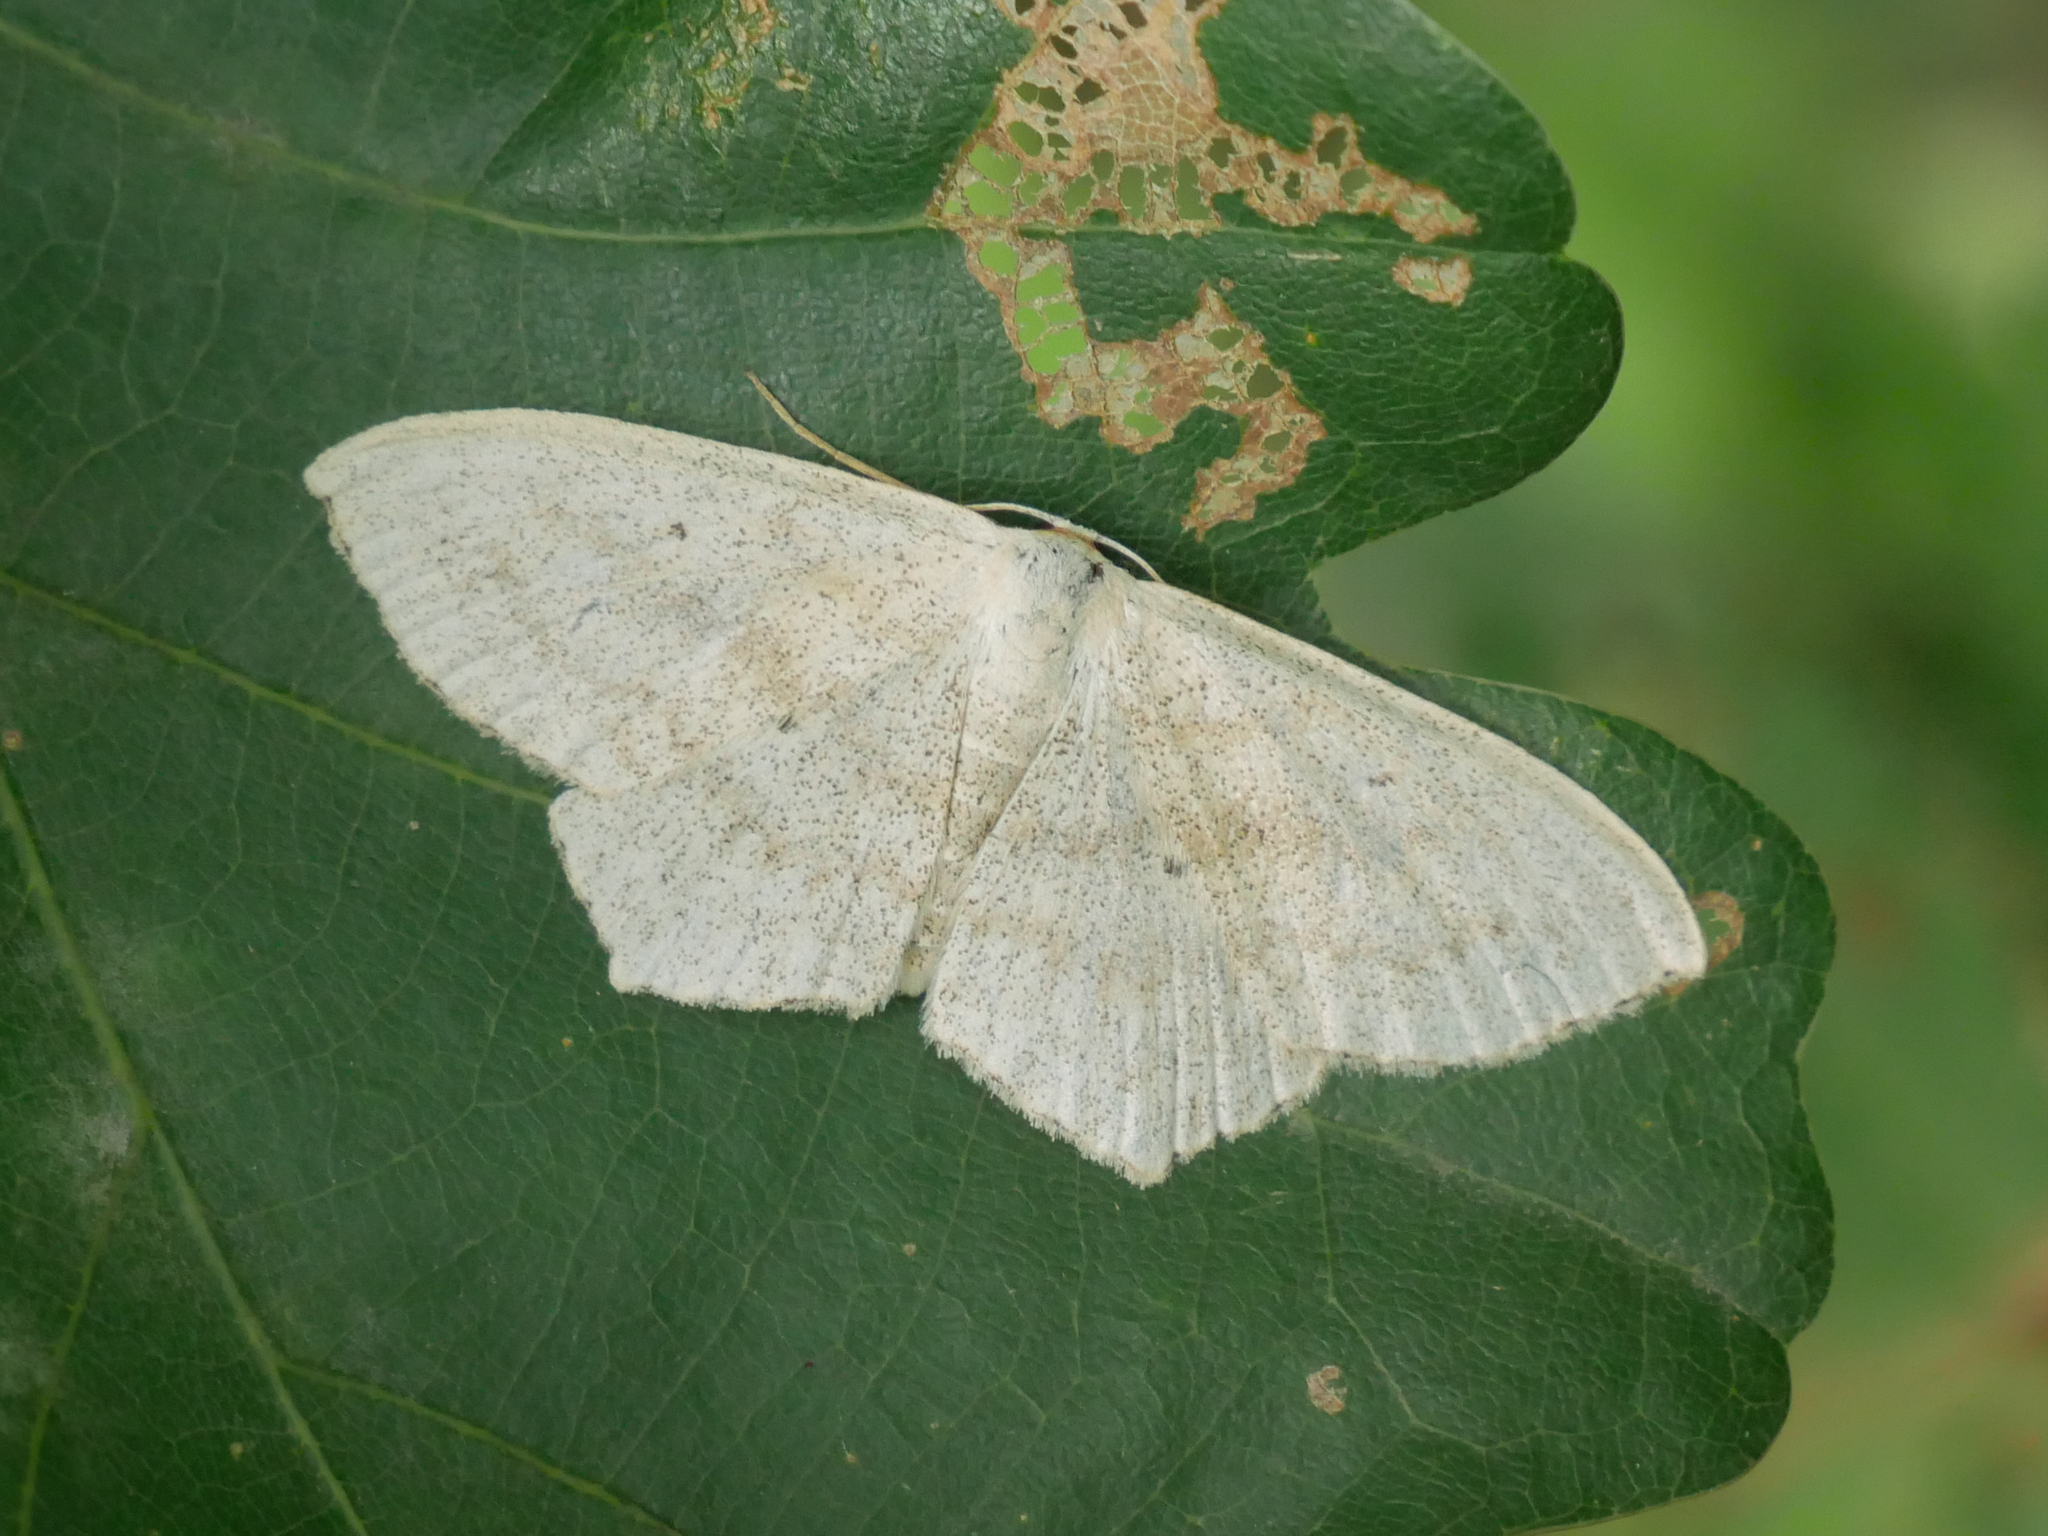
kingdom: Animalia
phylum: Arthropoda
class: Insecta
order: Lepidoptera
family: Geometridae
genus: Scopula
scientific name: Scopula nigropunctata
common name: Sub-angled wave
